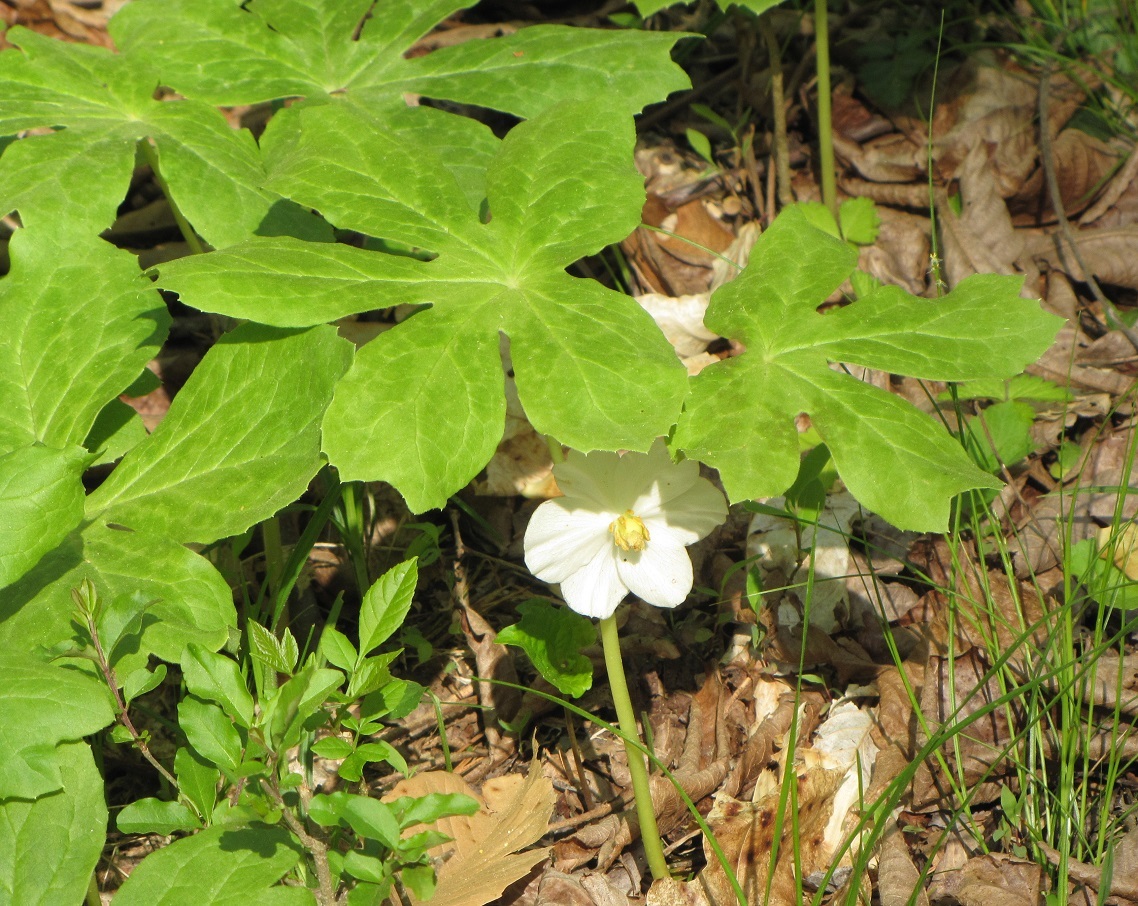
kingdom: Plantae
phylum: Tracheophyta
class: Magnoliopsida
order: Ranunculales
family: Berberidaceae
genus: Podophyllum
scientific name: Podophyllum peltatum
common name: Wild mandrake
